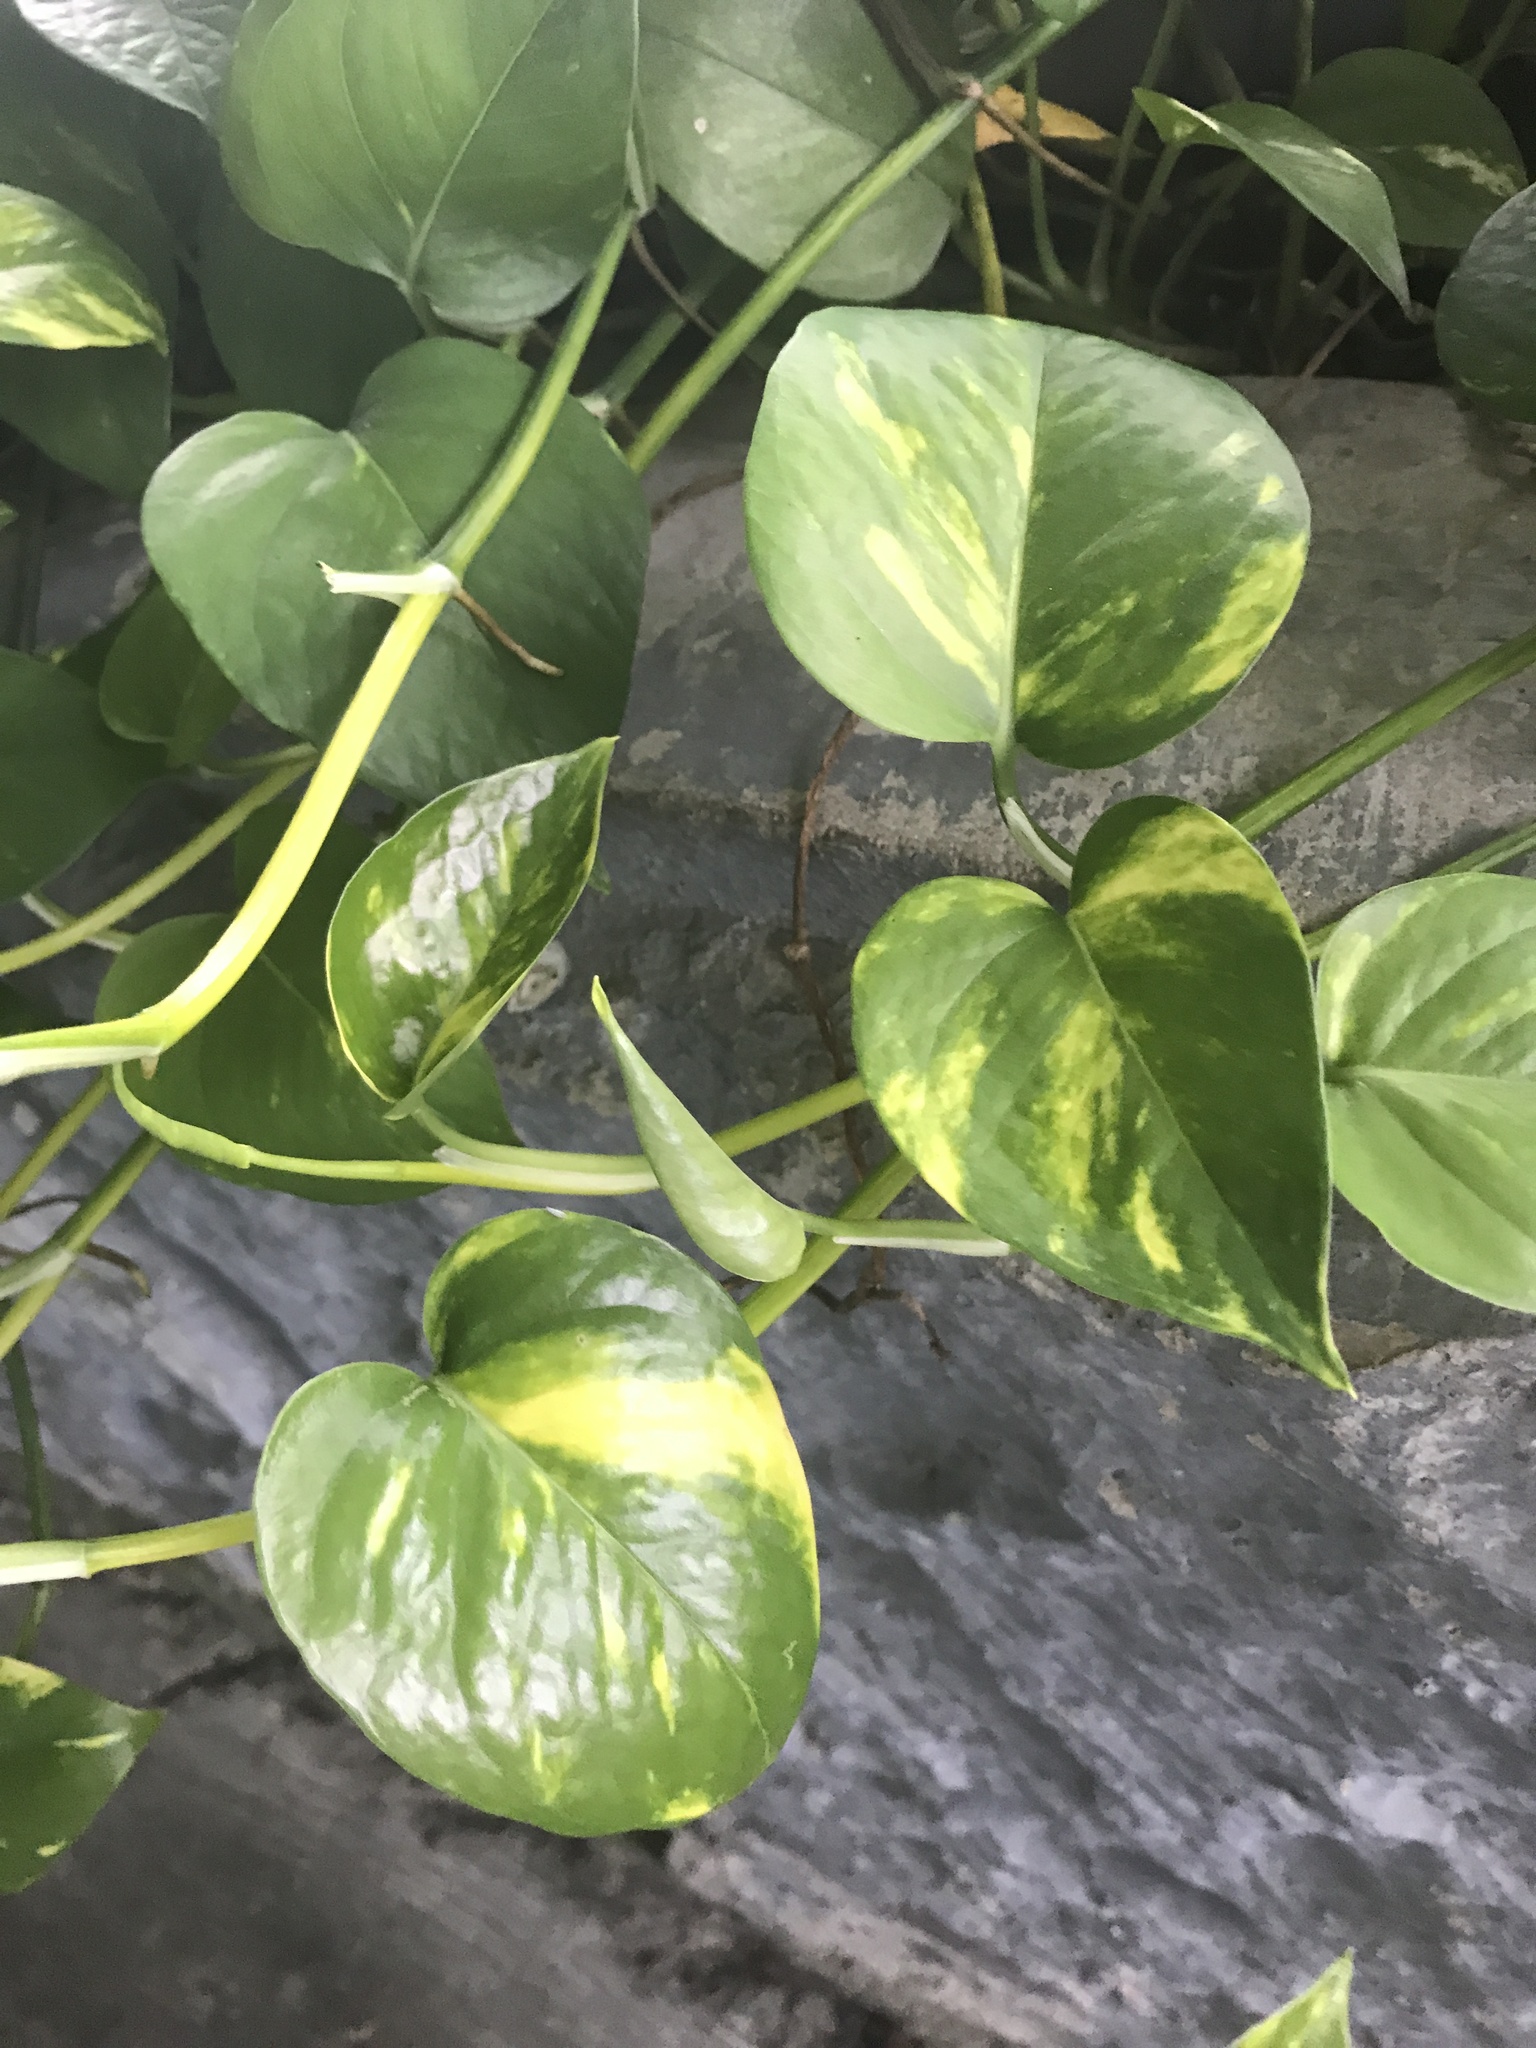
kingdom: Plantae
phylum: Tracheophyta
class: Liliopsida
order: Alismatales
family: Araceae
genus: Epipremnum
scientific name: Epipremnum aureum
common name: Golden hunter's-robe
